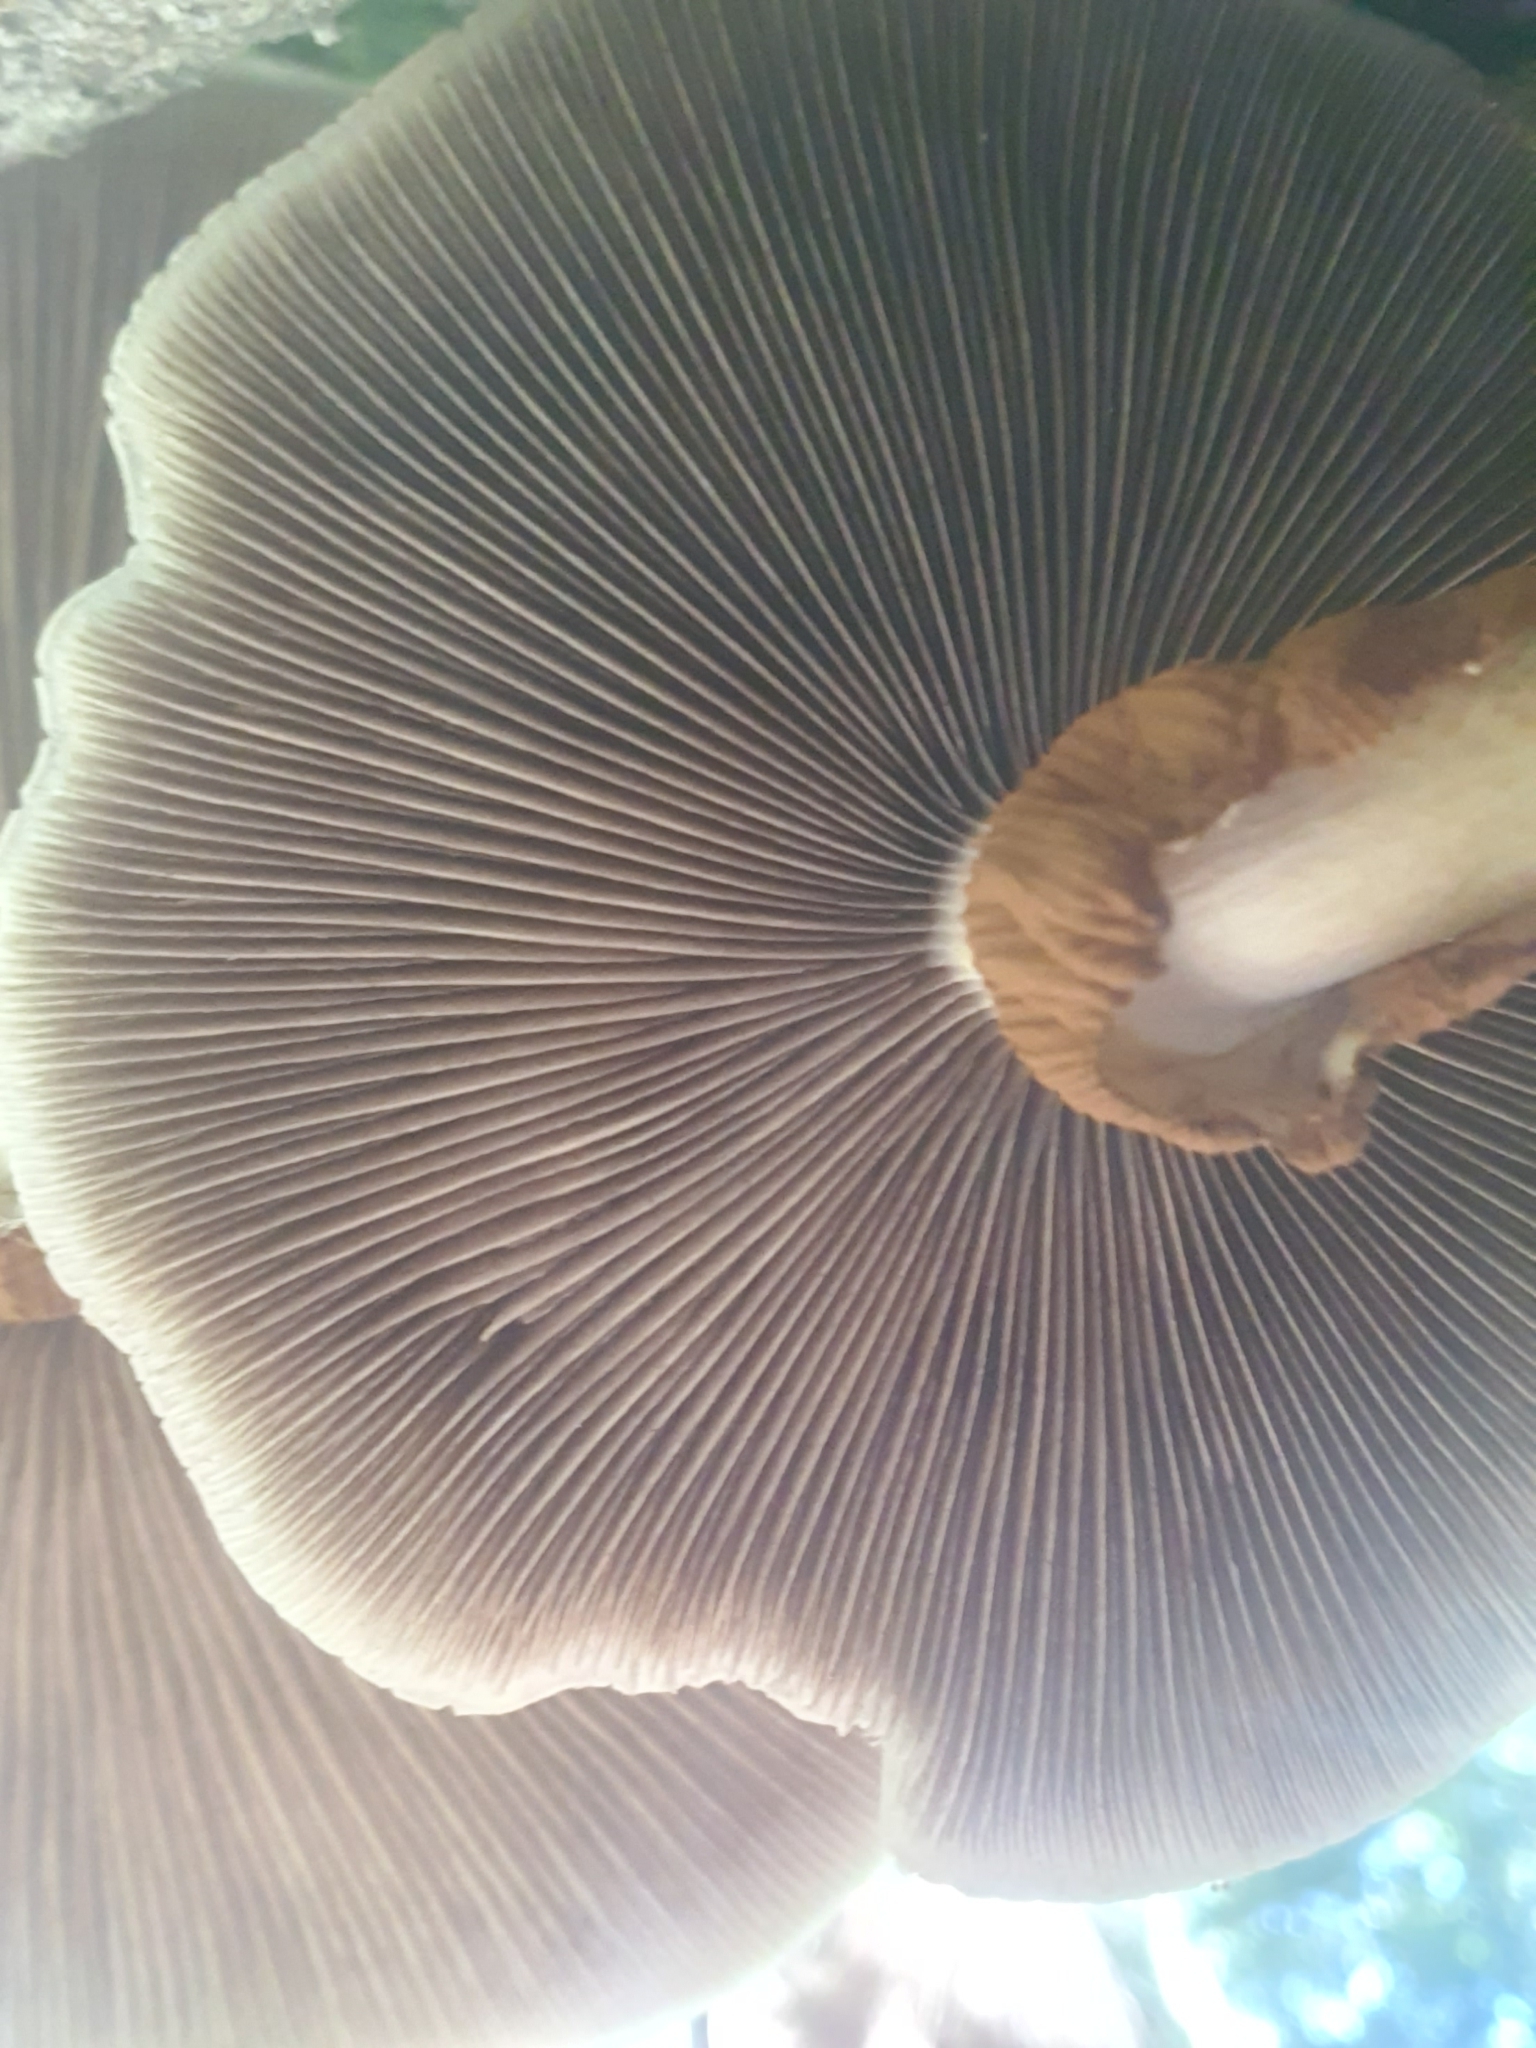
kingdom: Fungi
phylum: Basidiomycota
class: Agaricomycetes
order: Agaricales
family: Tubariaceae
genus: Cyclocybe
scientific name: Cyclocybe parasitica
